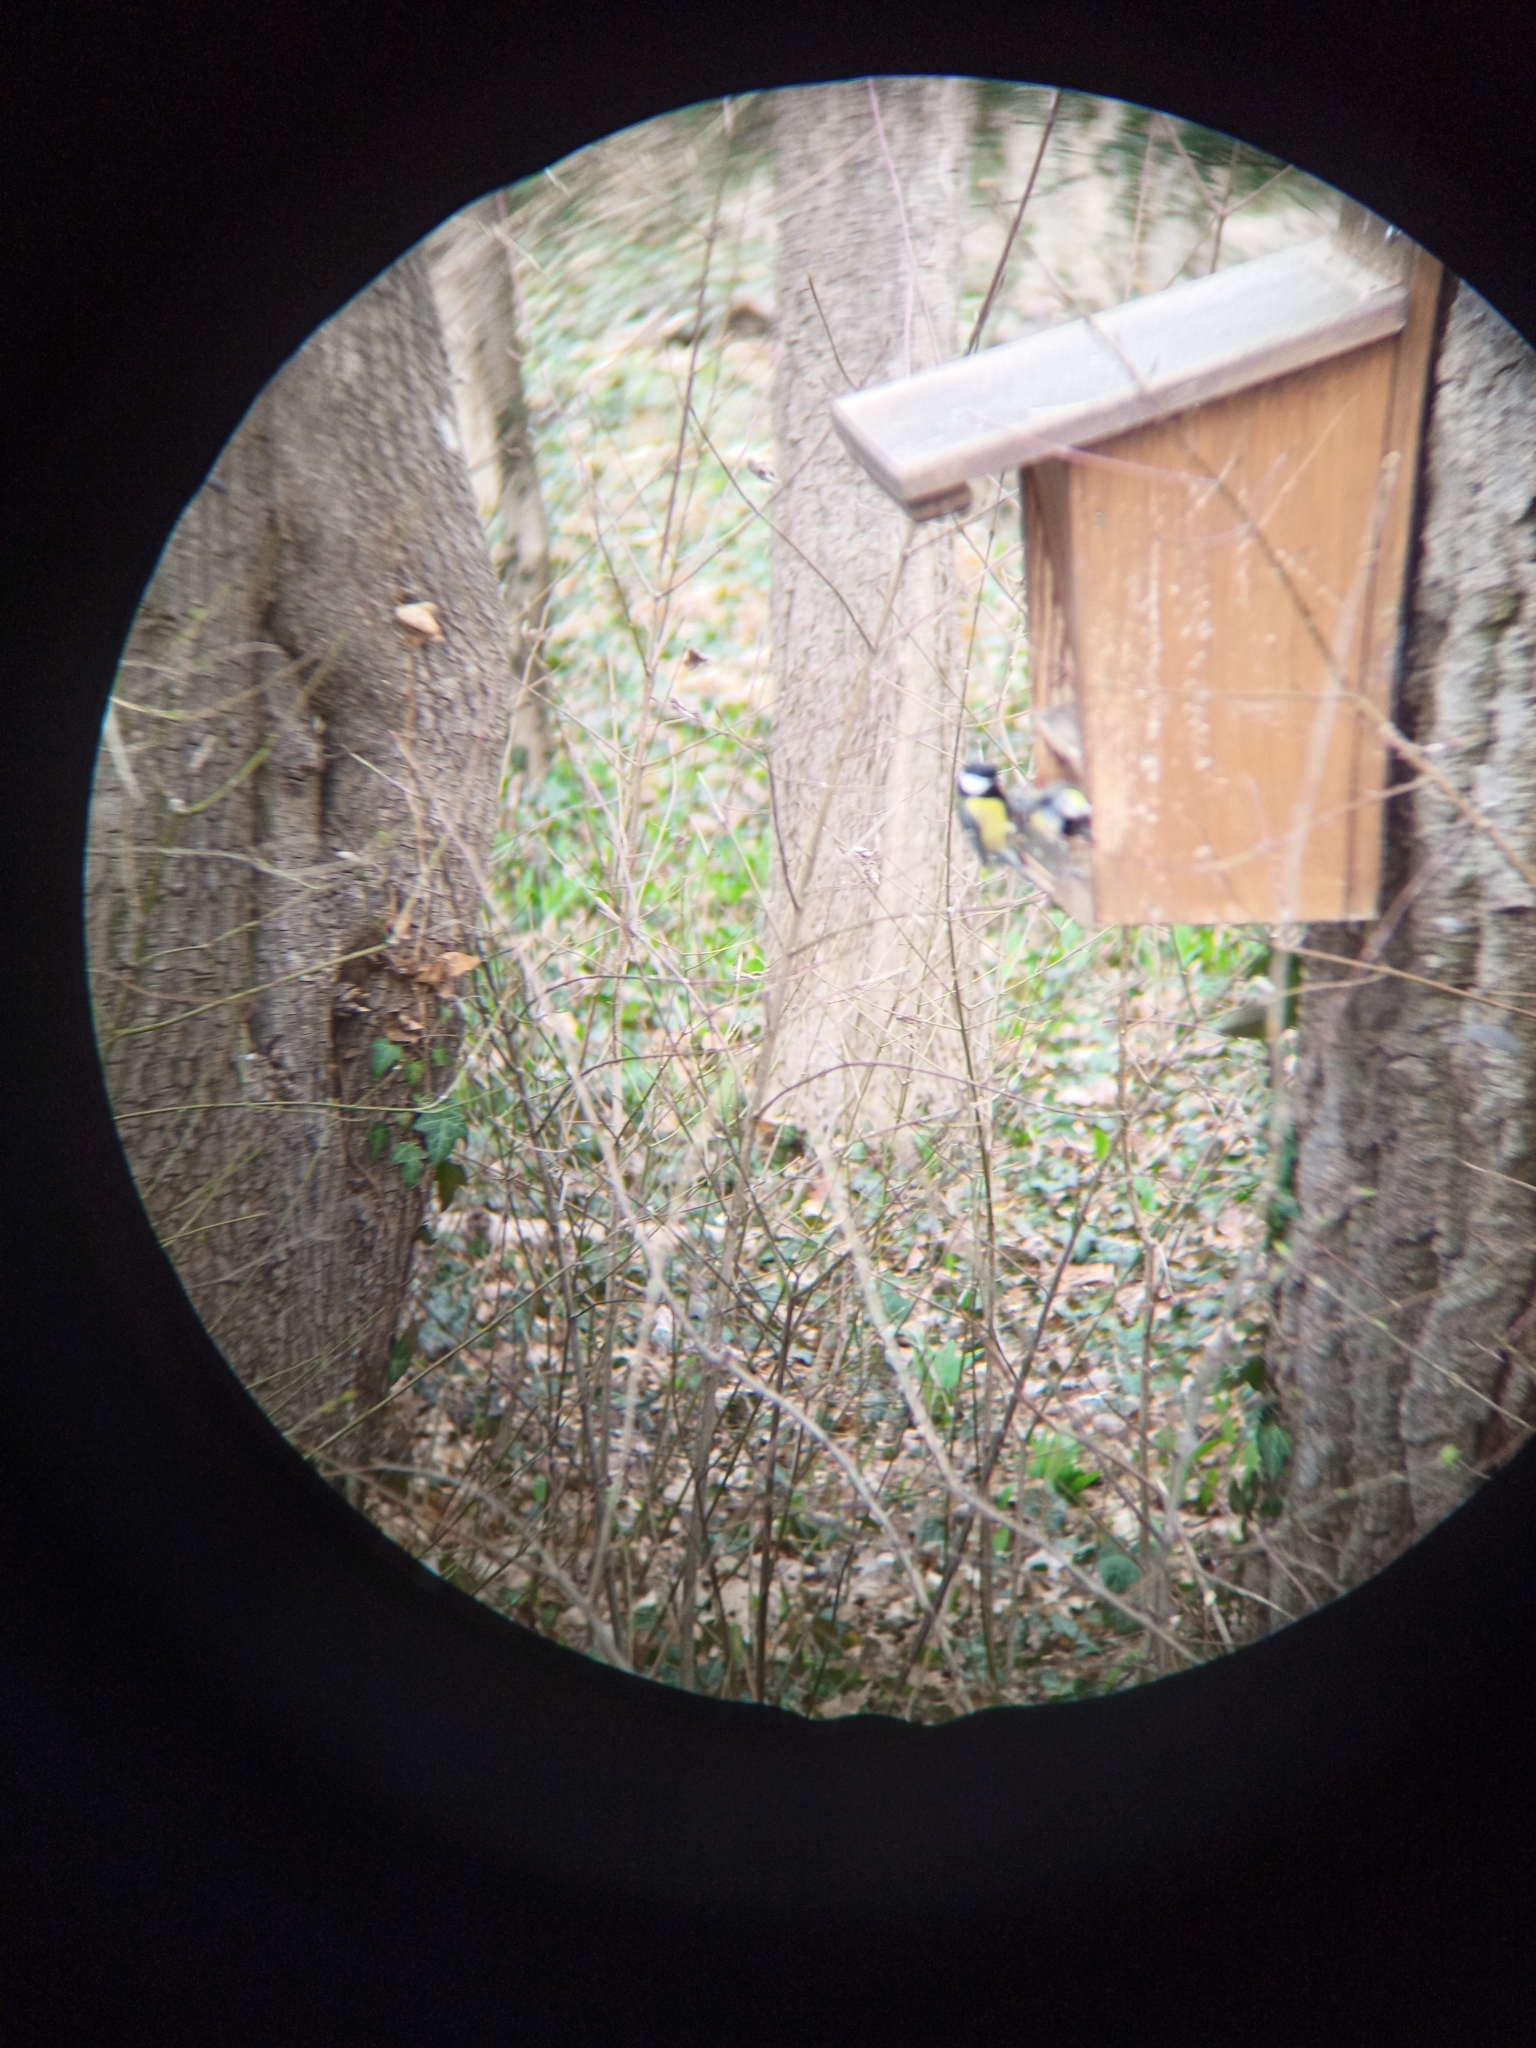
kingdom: Animalia
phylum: Chordata
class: Aves
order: Passeriformes
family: Paridae
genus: Parus
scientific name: Parus major
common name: Great tit
